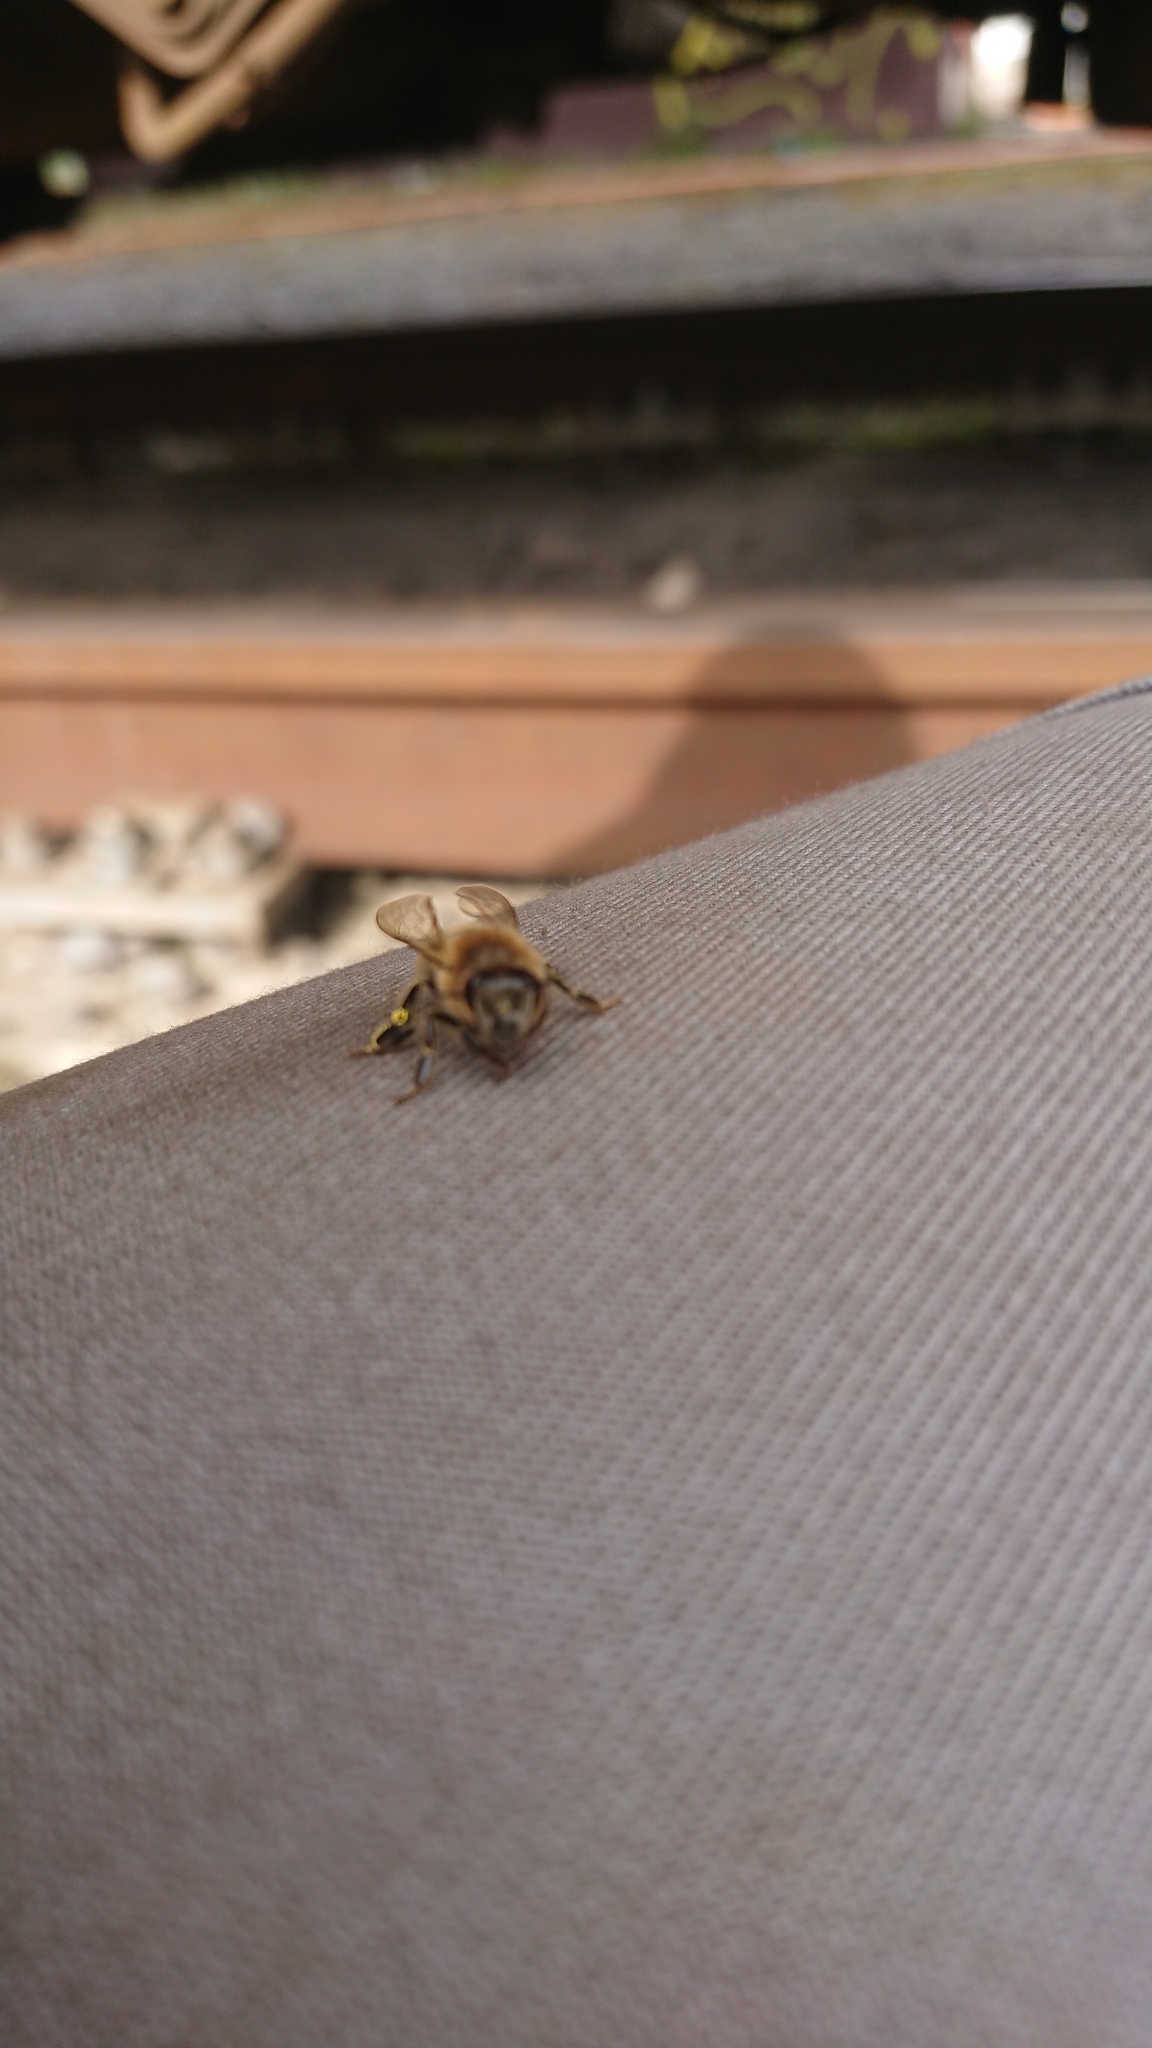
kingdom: Animalia
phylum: Arthropoda
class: Insecta
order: Hymenoptera
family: Apidae
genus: Apis
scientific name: Apis mellifera
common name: Honey bee
